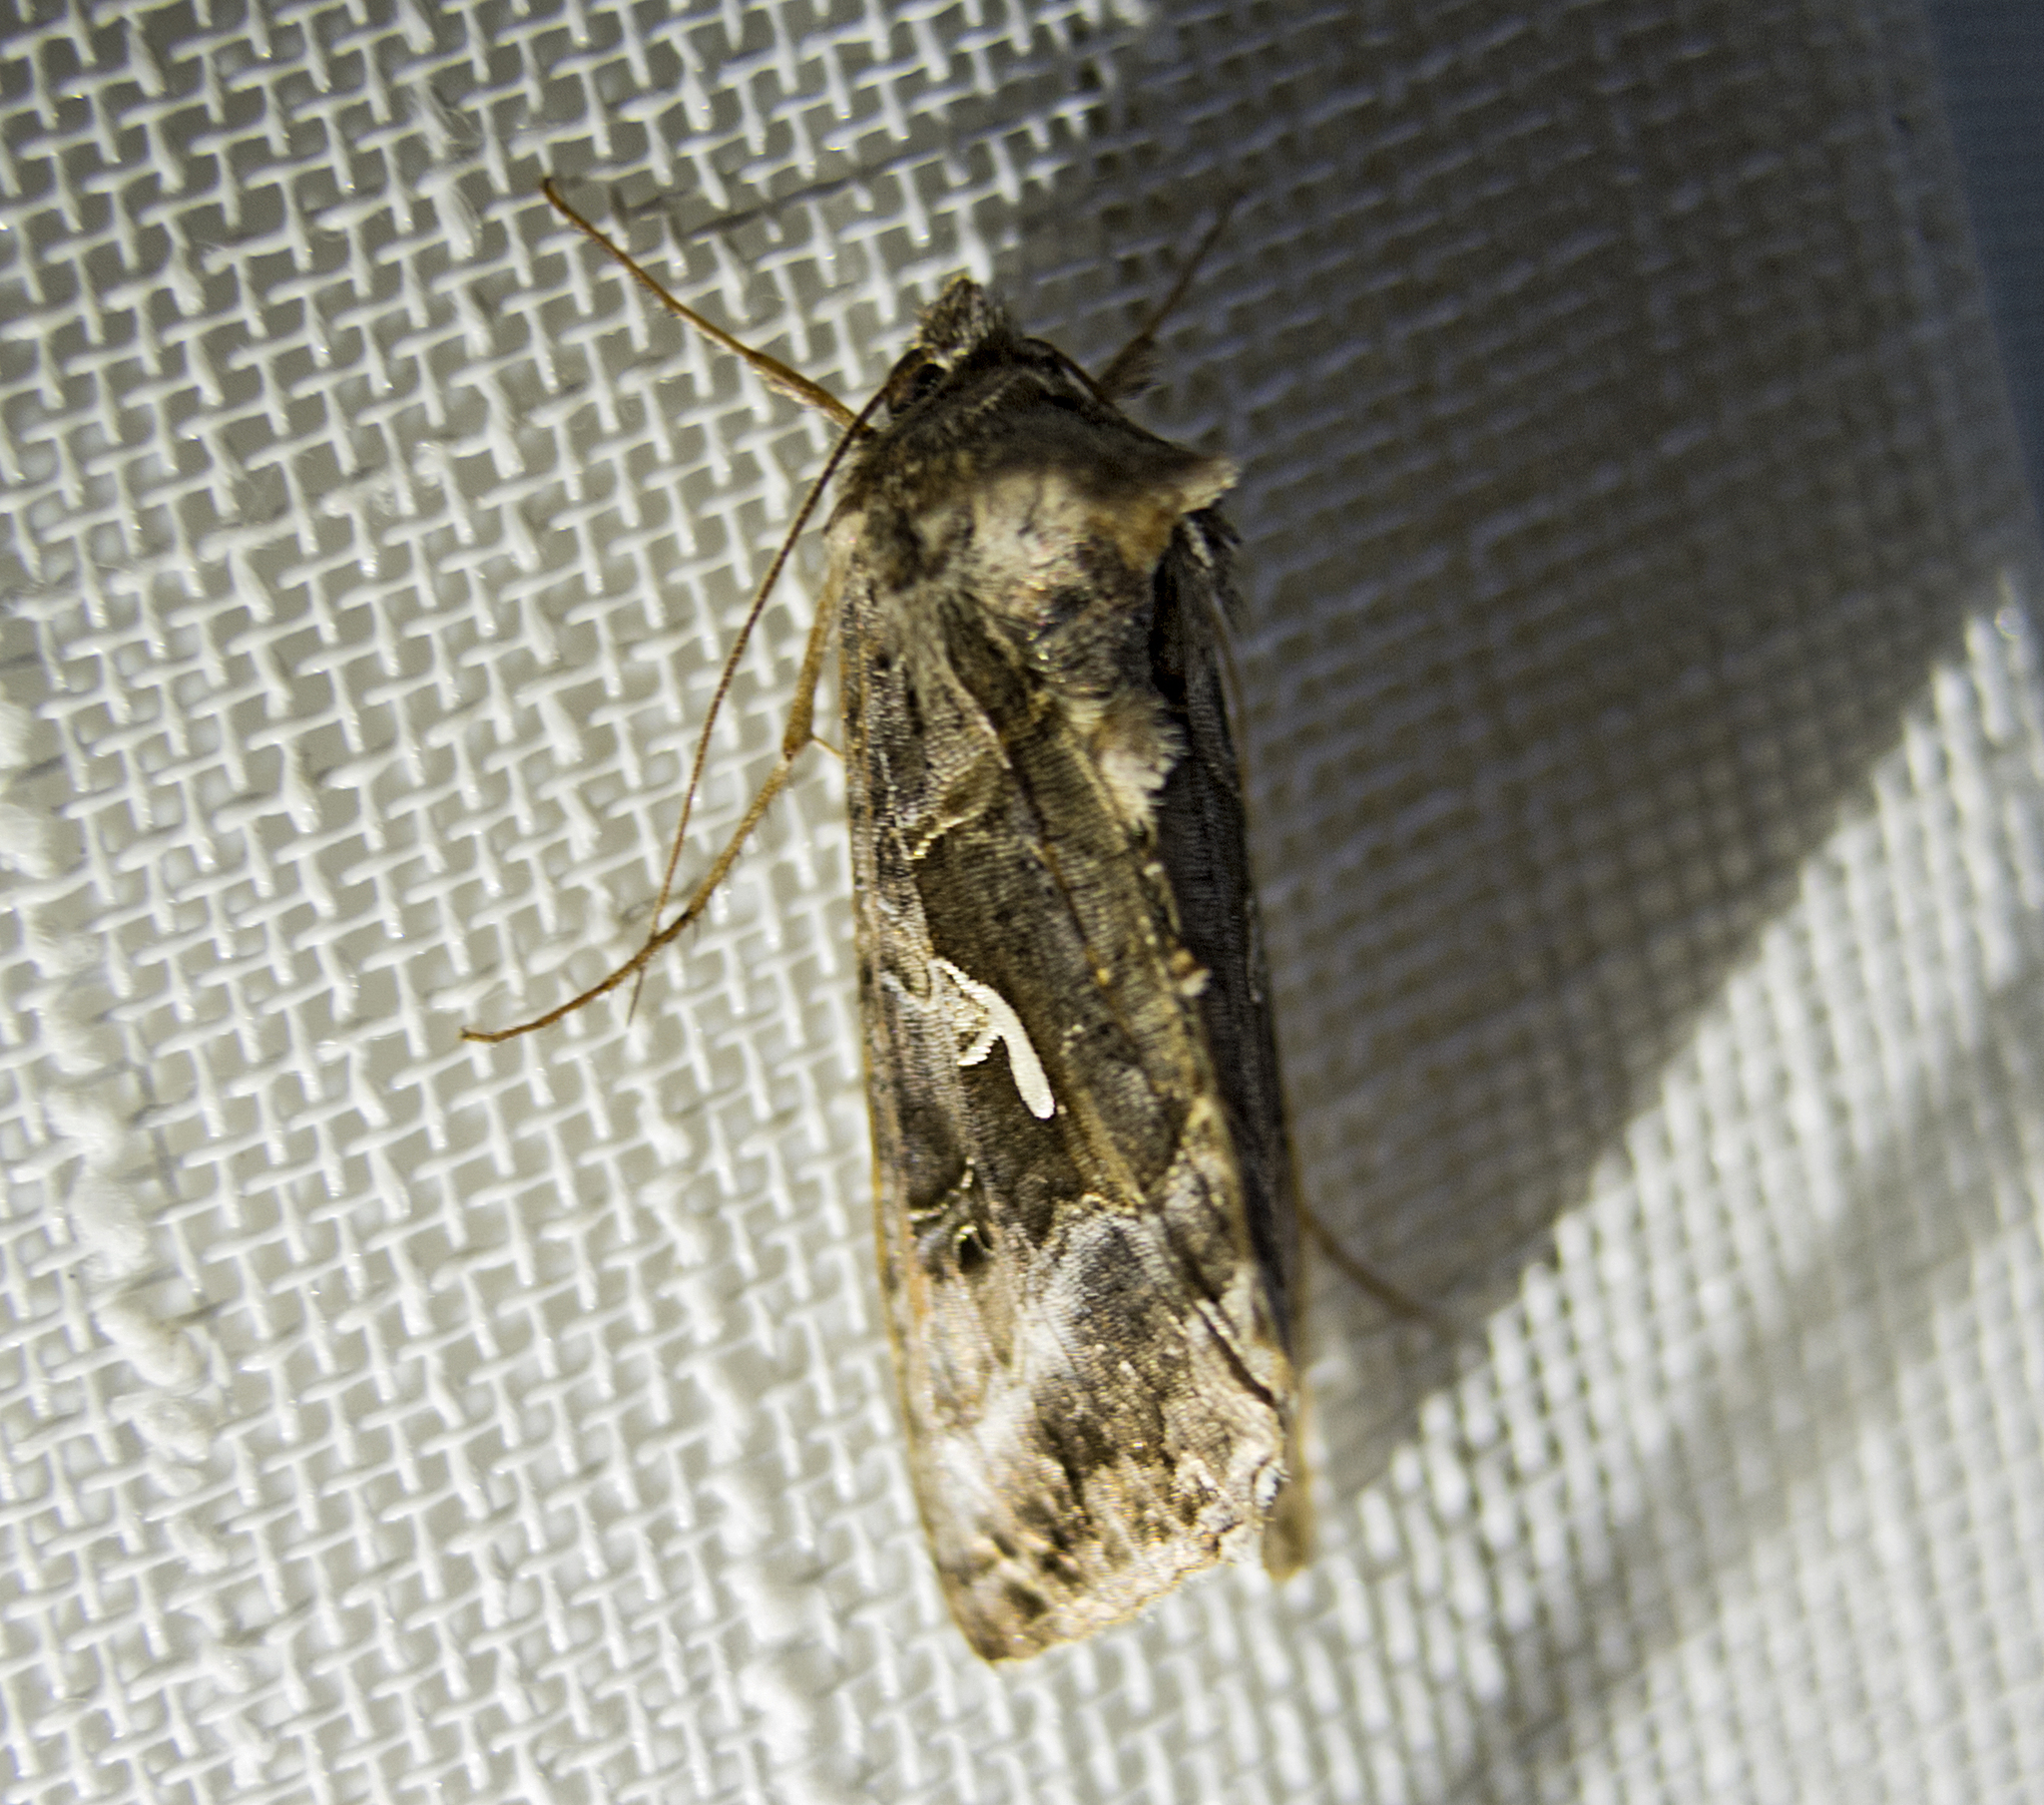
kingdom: Animalia
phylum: Arthropoda
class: Insecta
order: Lepidoptera
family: Noctuidae
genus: Autographa
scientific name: Autographa gamma
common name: Silver y
